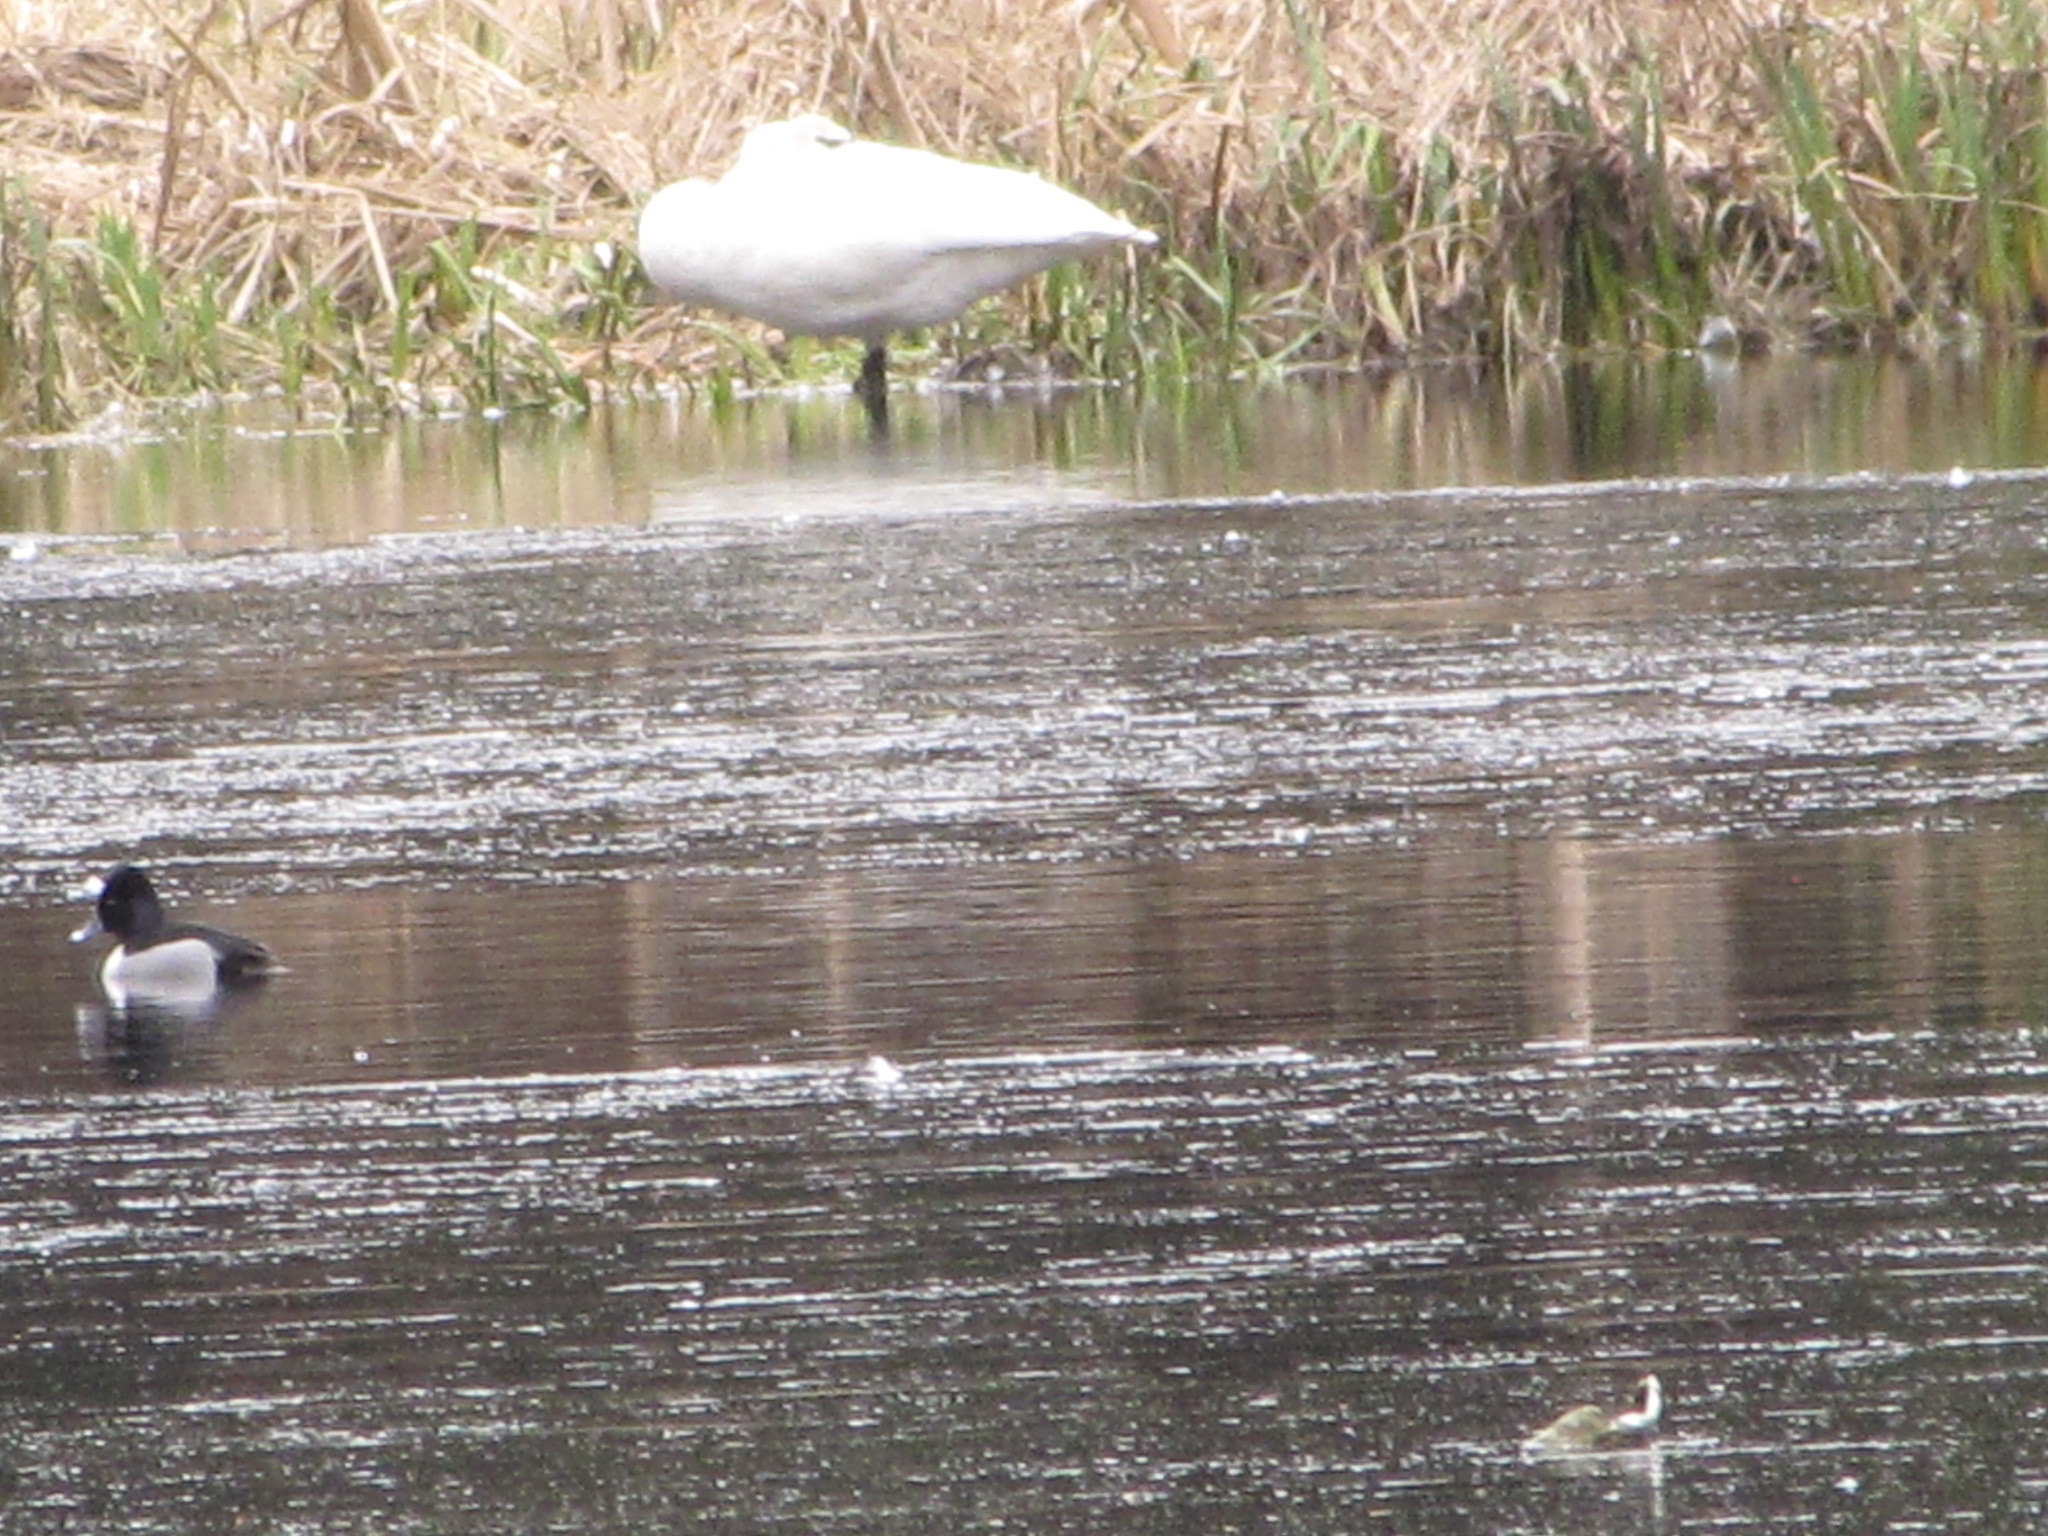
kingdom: Animalia
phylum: Chordata
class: Aves
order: Anseriformes
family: Anatidae
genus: Aythya
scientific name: Aythya affinis
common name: Lesser scaup
